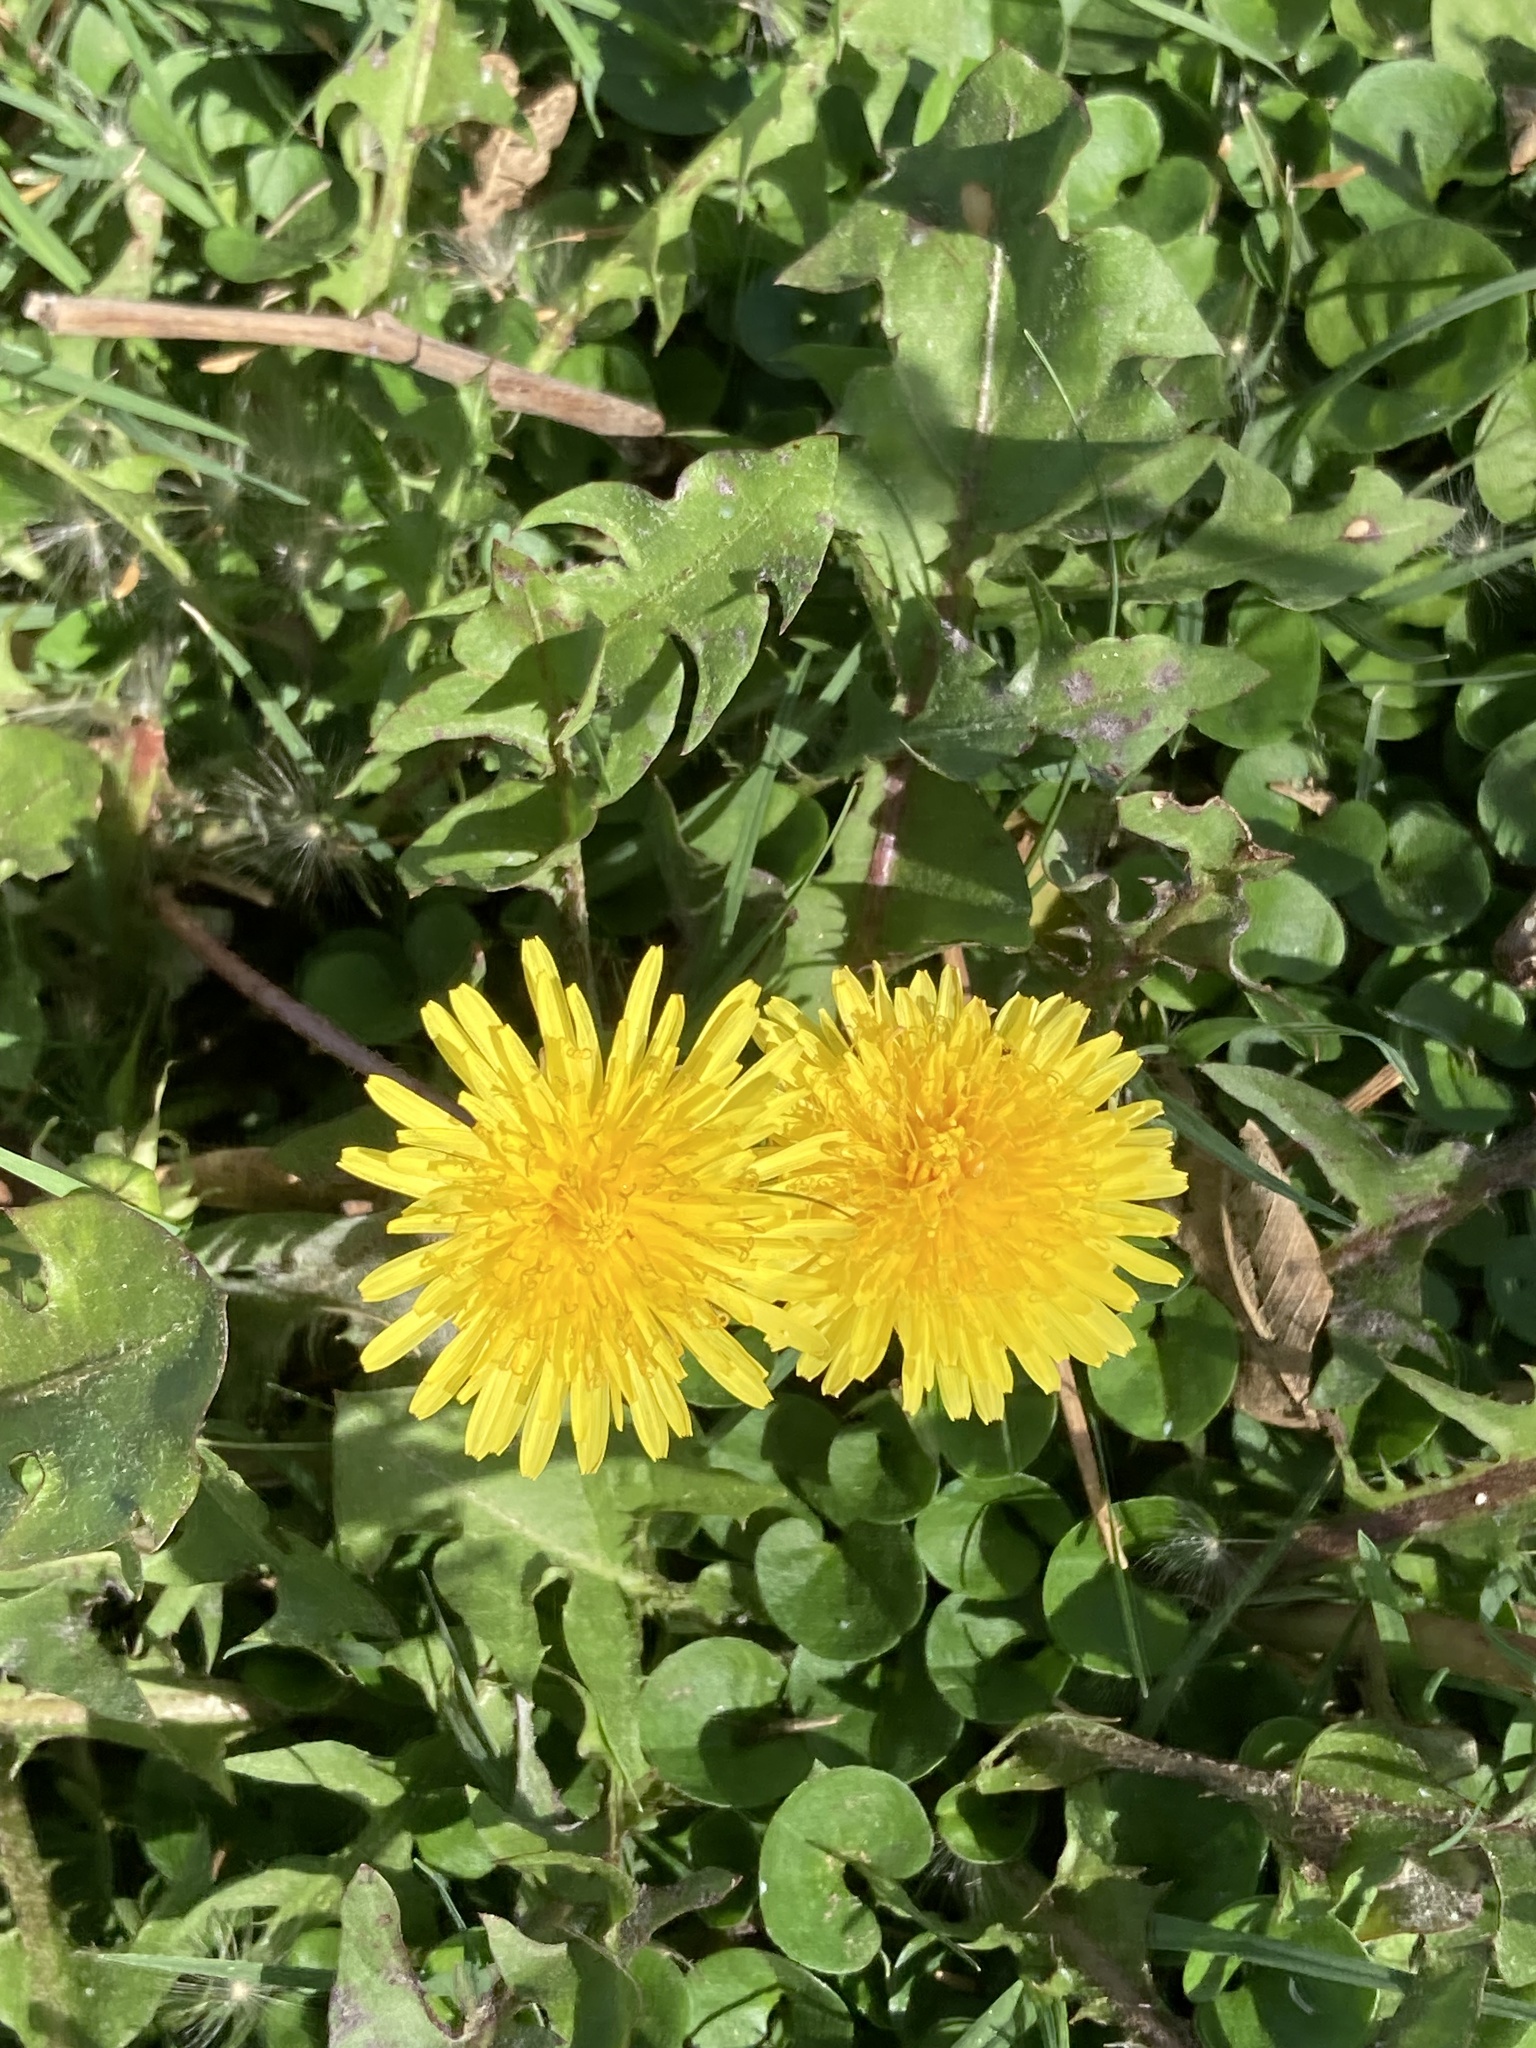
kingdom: Plantae
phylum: Tracheophyta
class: Magnoliopsida
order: Asterales
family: Asteraceae
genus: Taraxacum
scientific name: Taraxacum officinale
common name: Common dandelion
